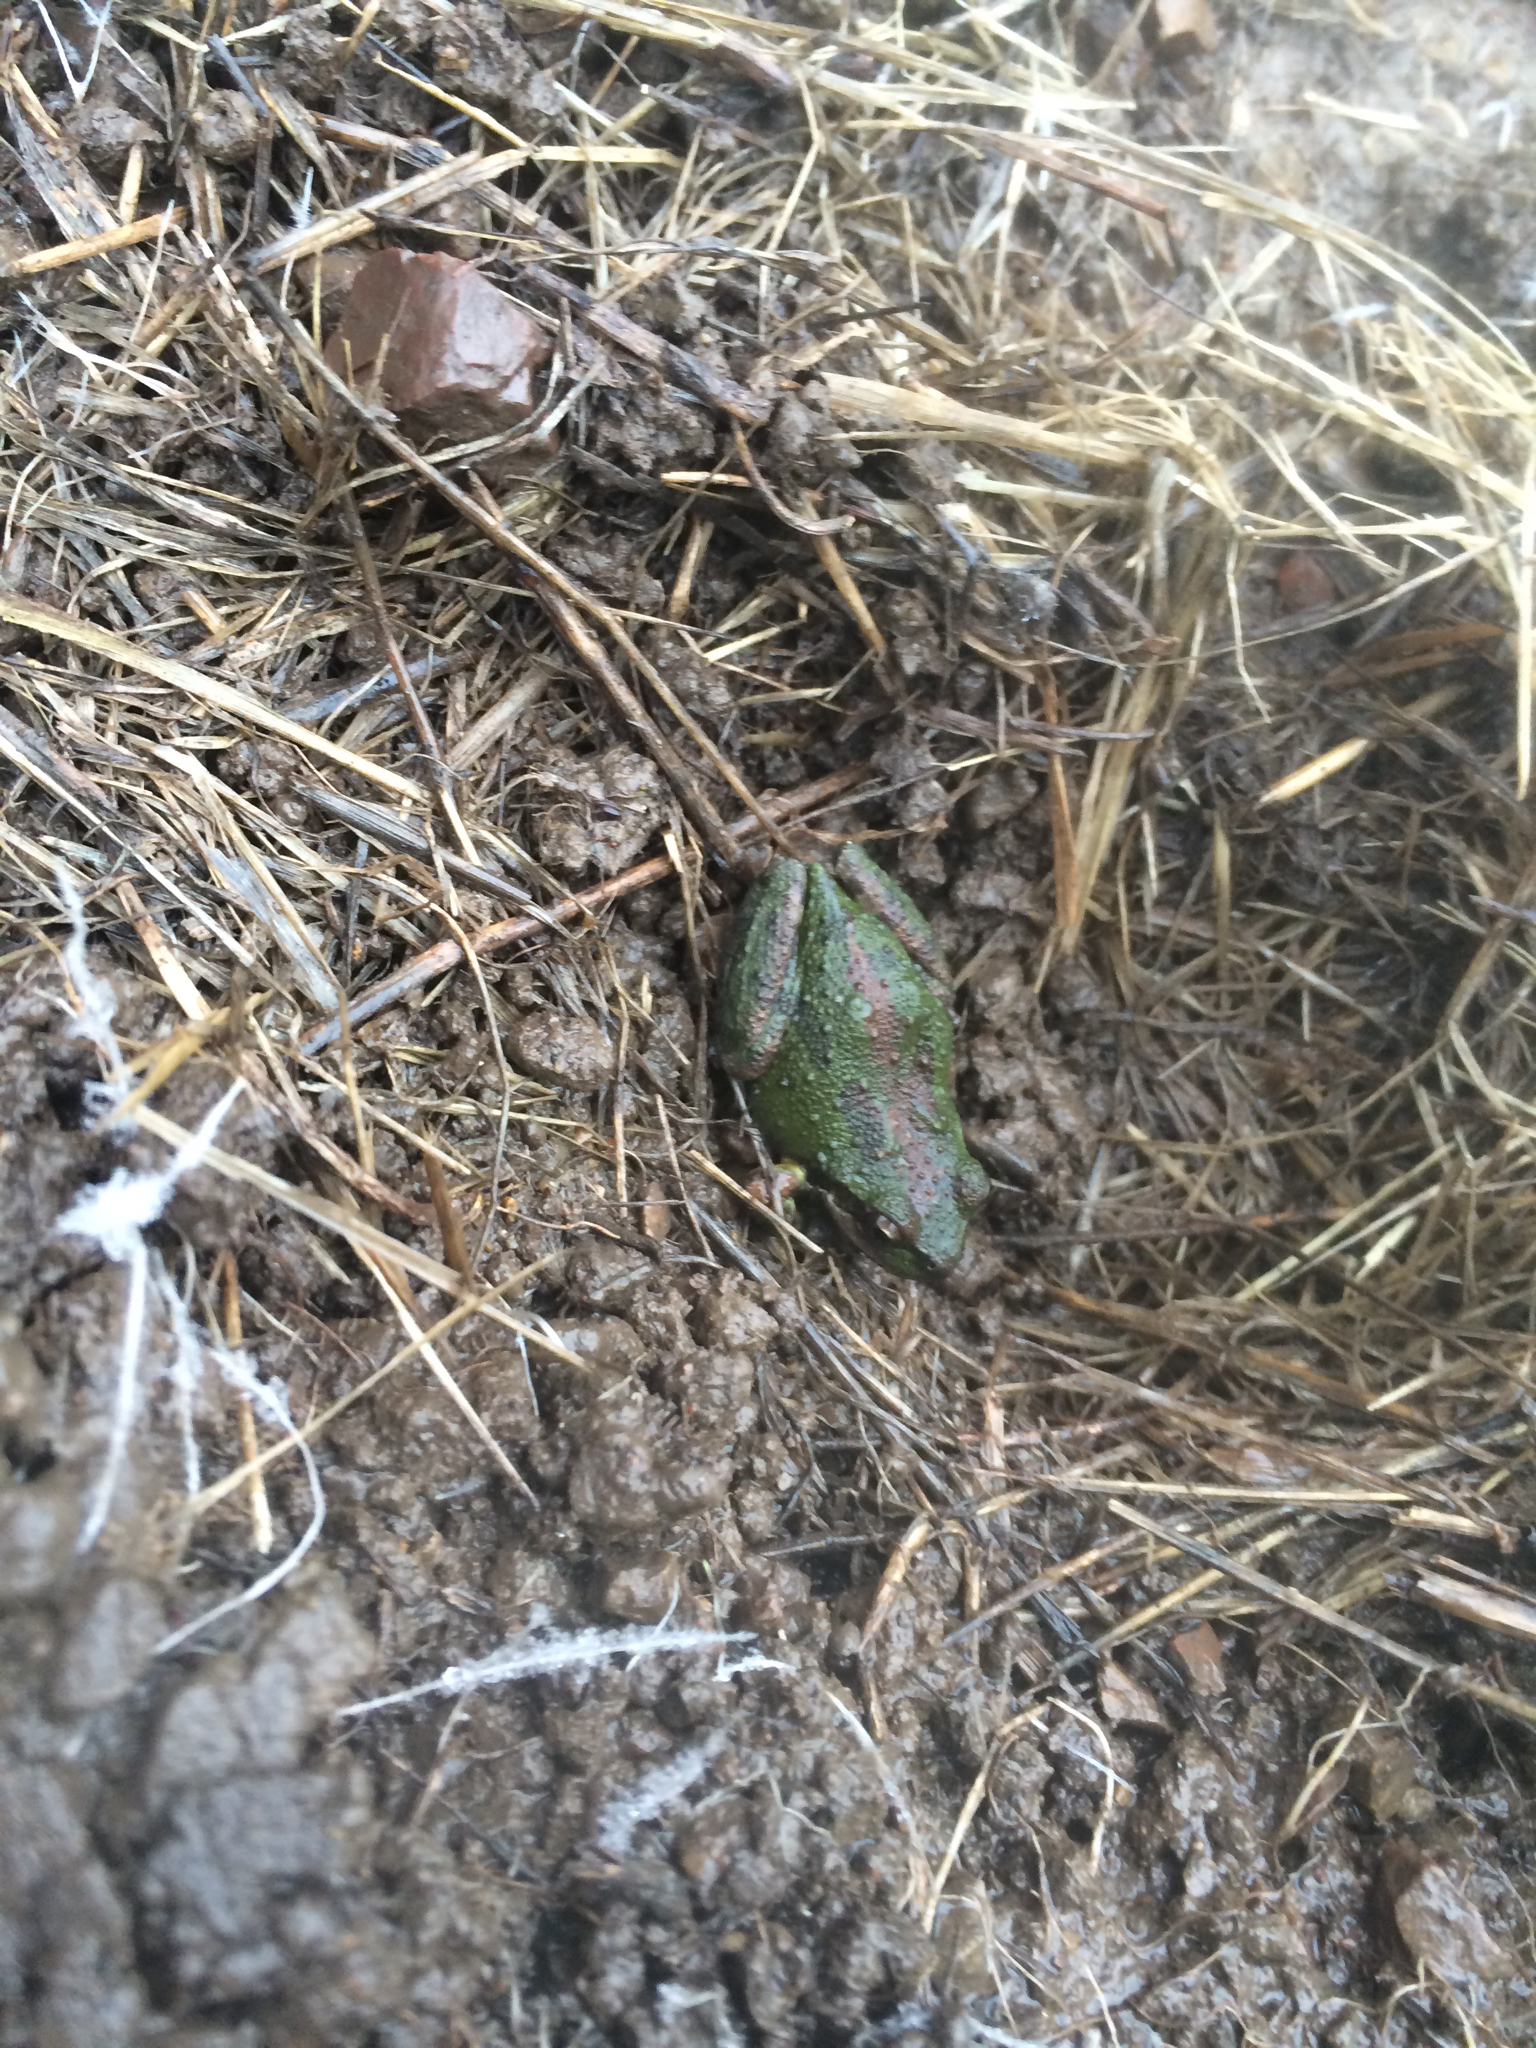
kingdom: Animalia
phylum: Chordata
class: Amphibia
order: Anura
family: Hylidae
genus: Pseudacris
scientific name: Pseudacris regilla
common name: Pacific chorus frog
